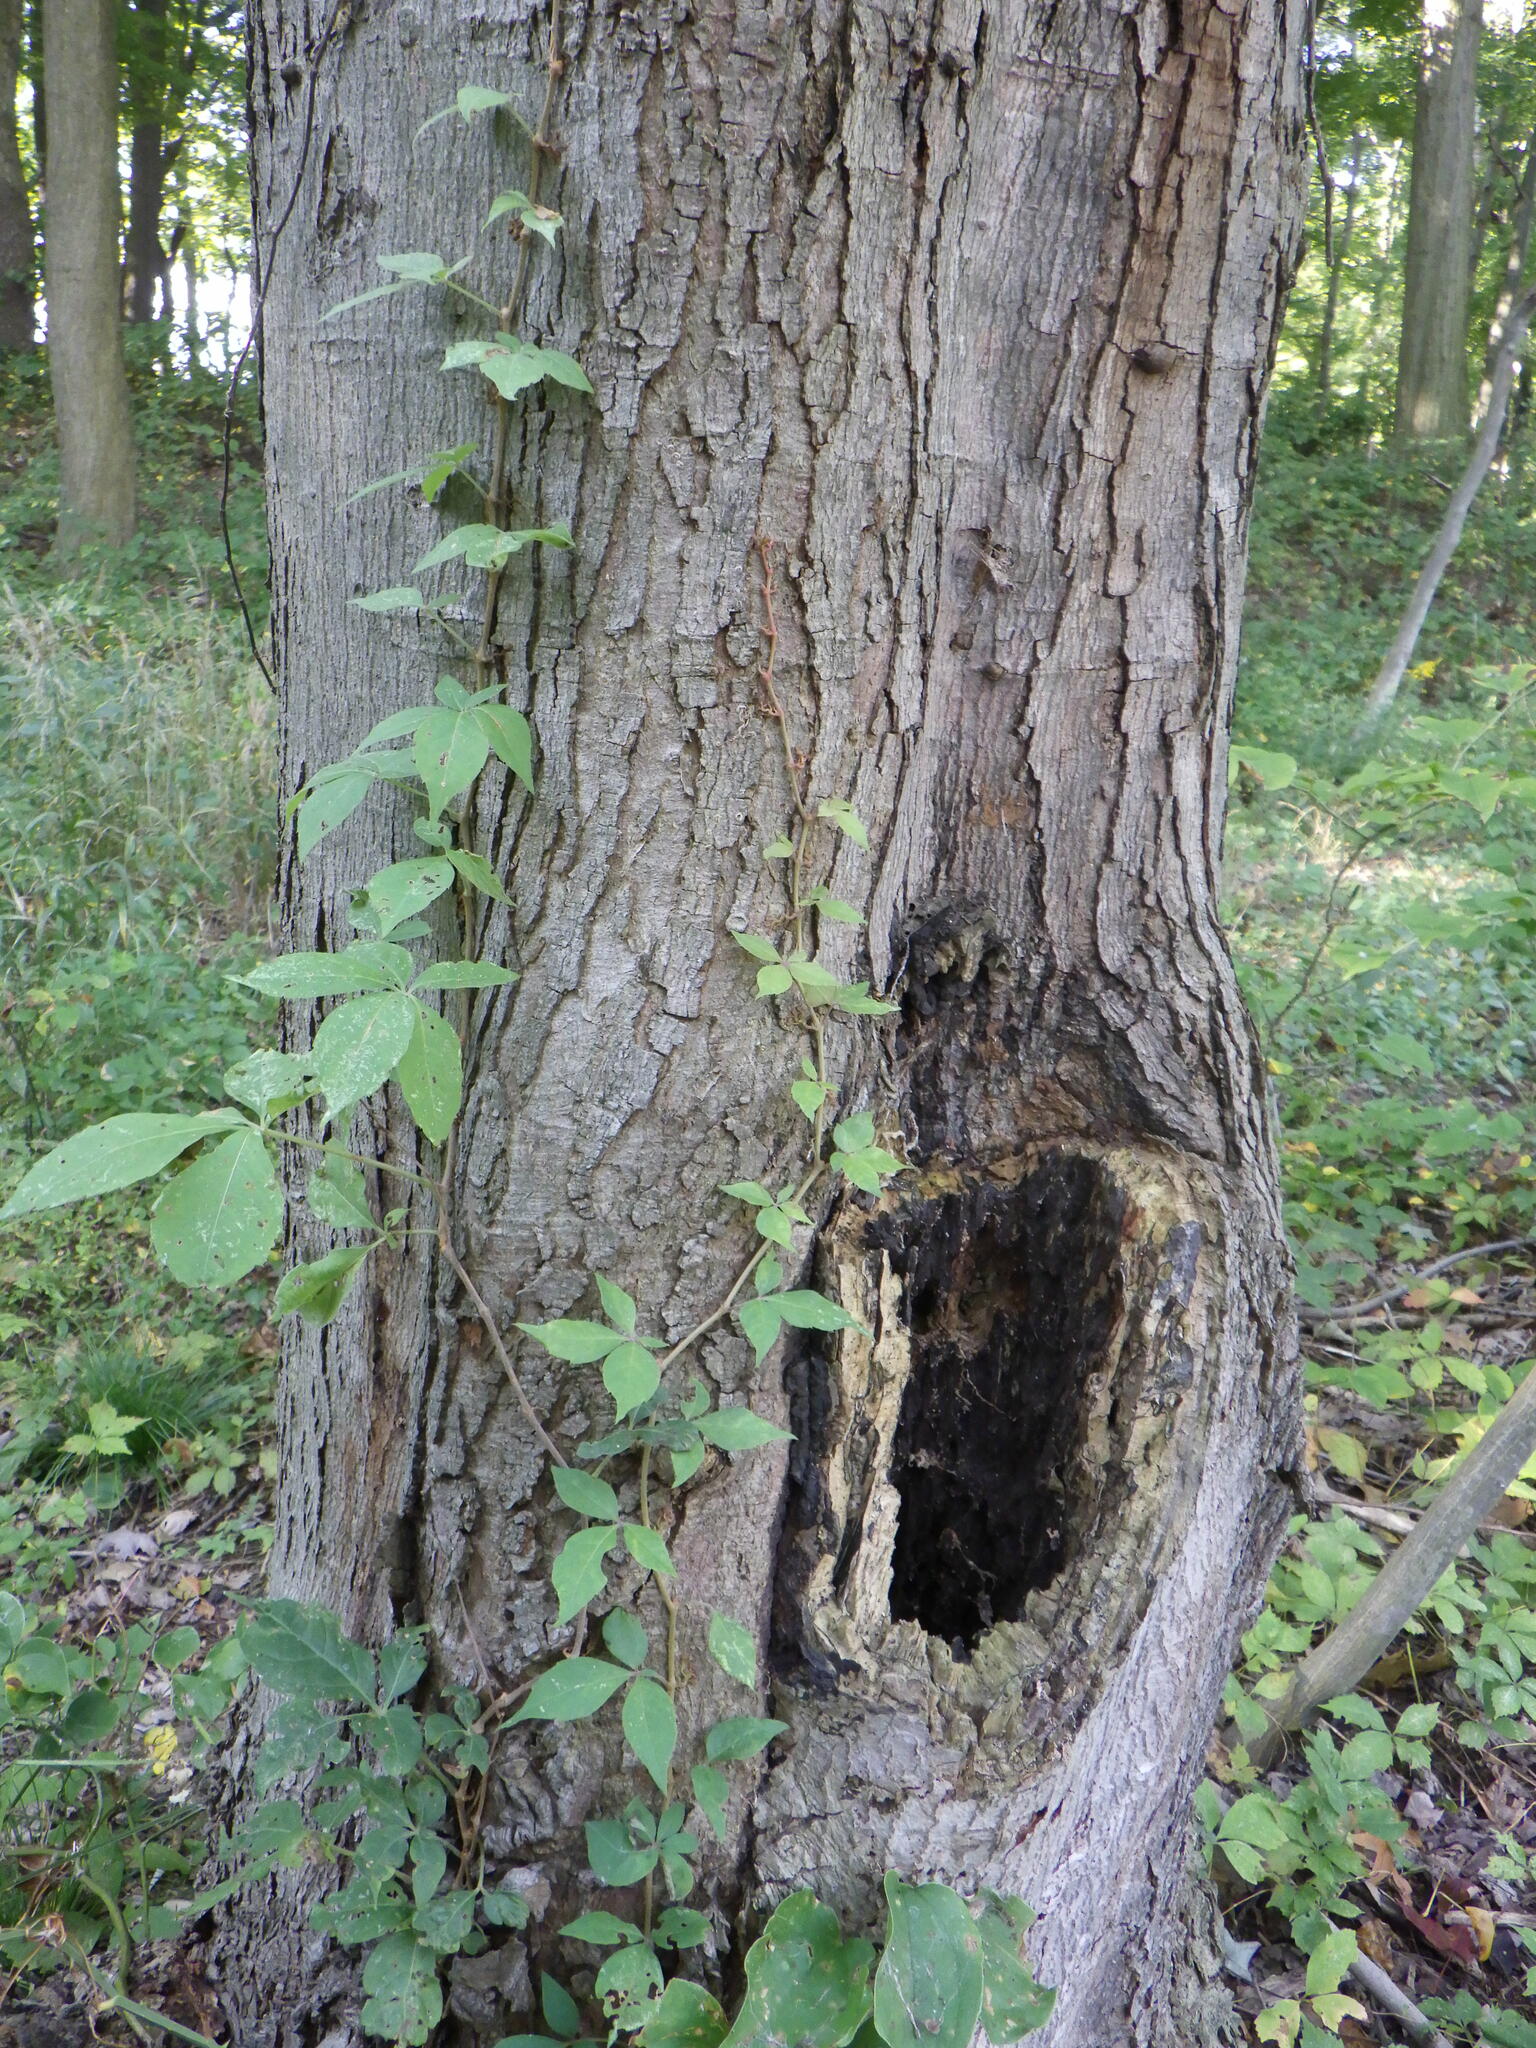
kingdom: Plantae
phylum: Tracheophyta
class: Magnoliopsida
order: Vitales
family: Vitaceae
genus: Parthenocissus
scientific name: Parthenocissus quinquefolia
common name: Virginia-creeper
